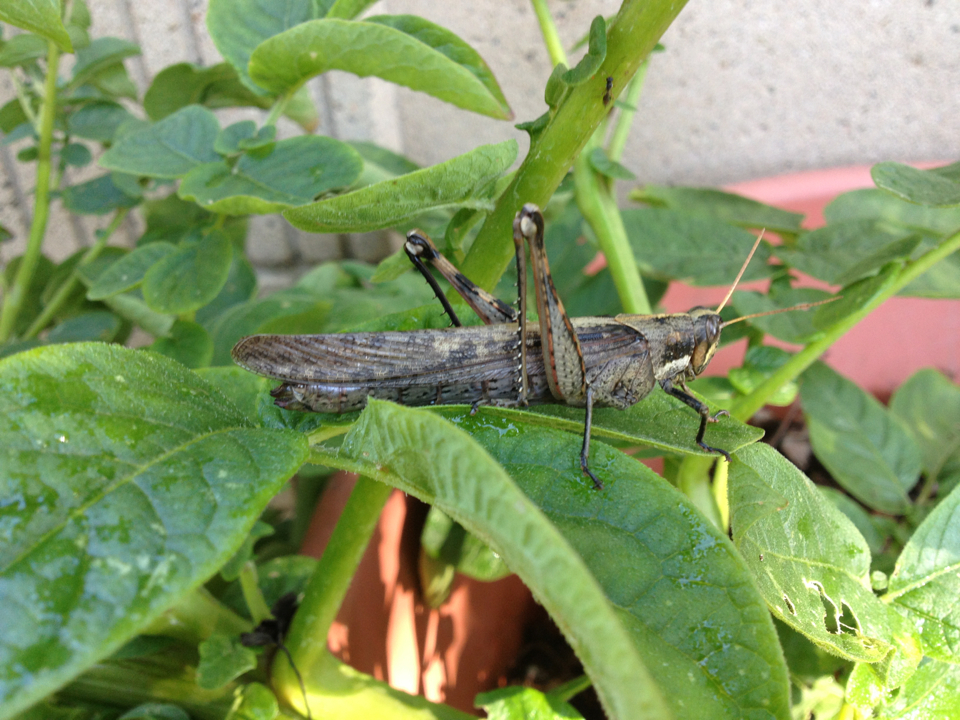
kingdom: Animalia
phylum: Arthropoda
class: Insecta
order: Orthoptera
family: Acrididae
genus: Schistocerca
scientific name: Schistocerca nitens
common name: Vagrant grasshopper
